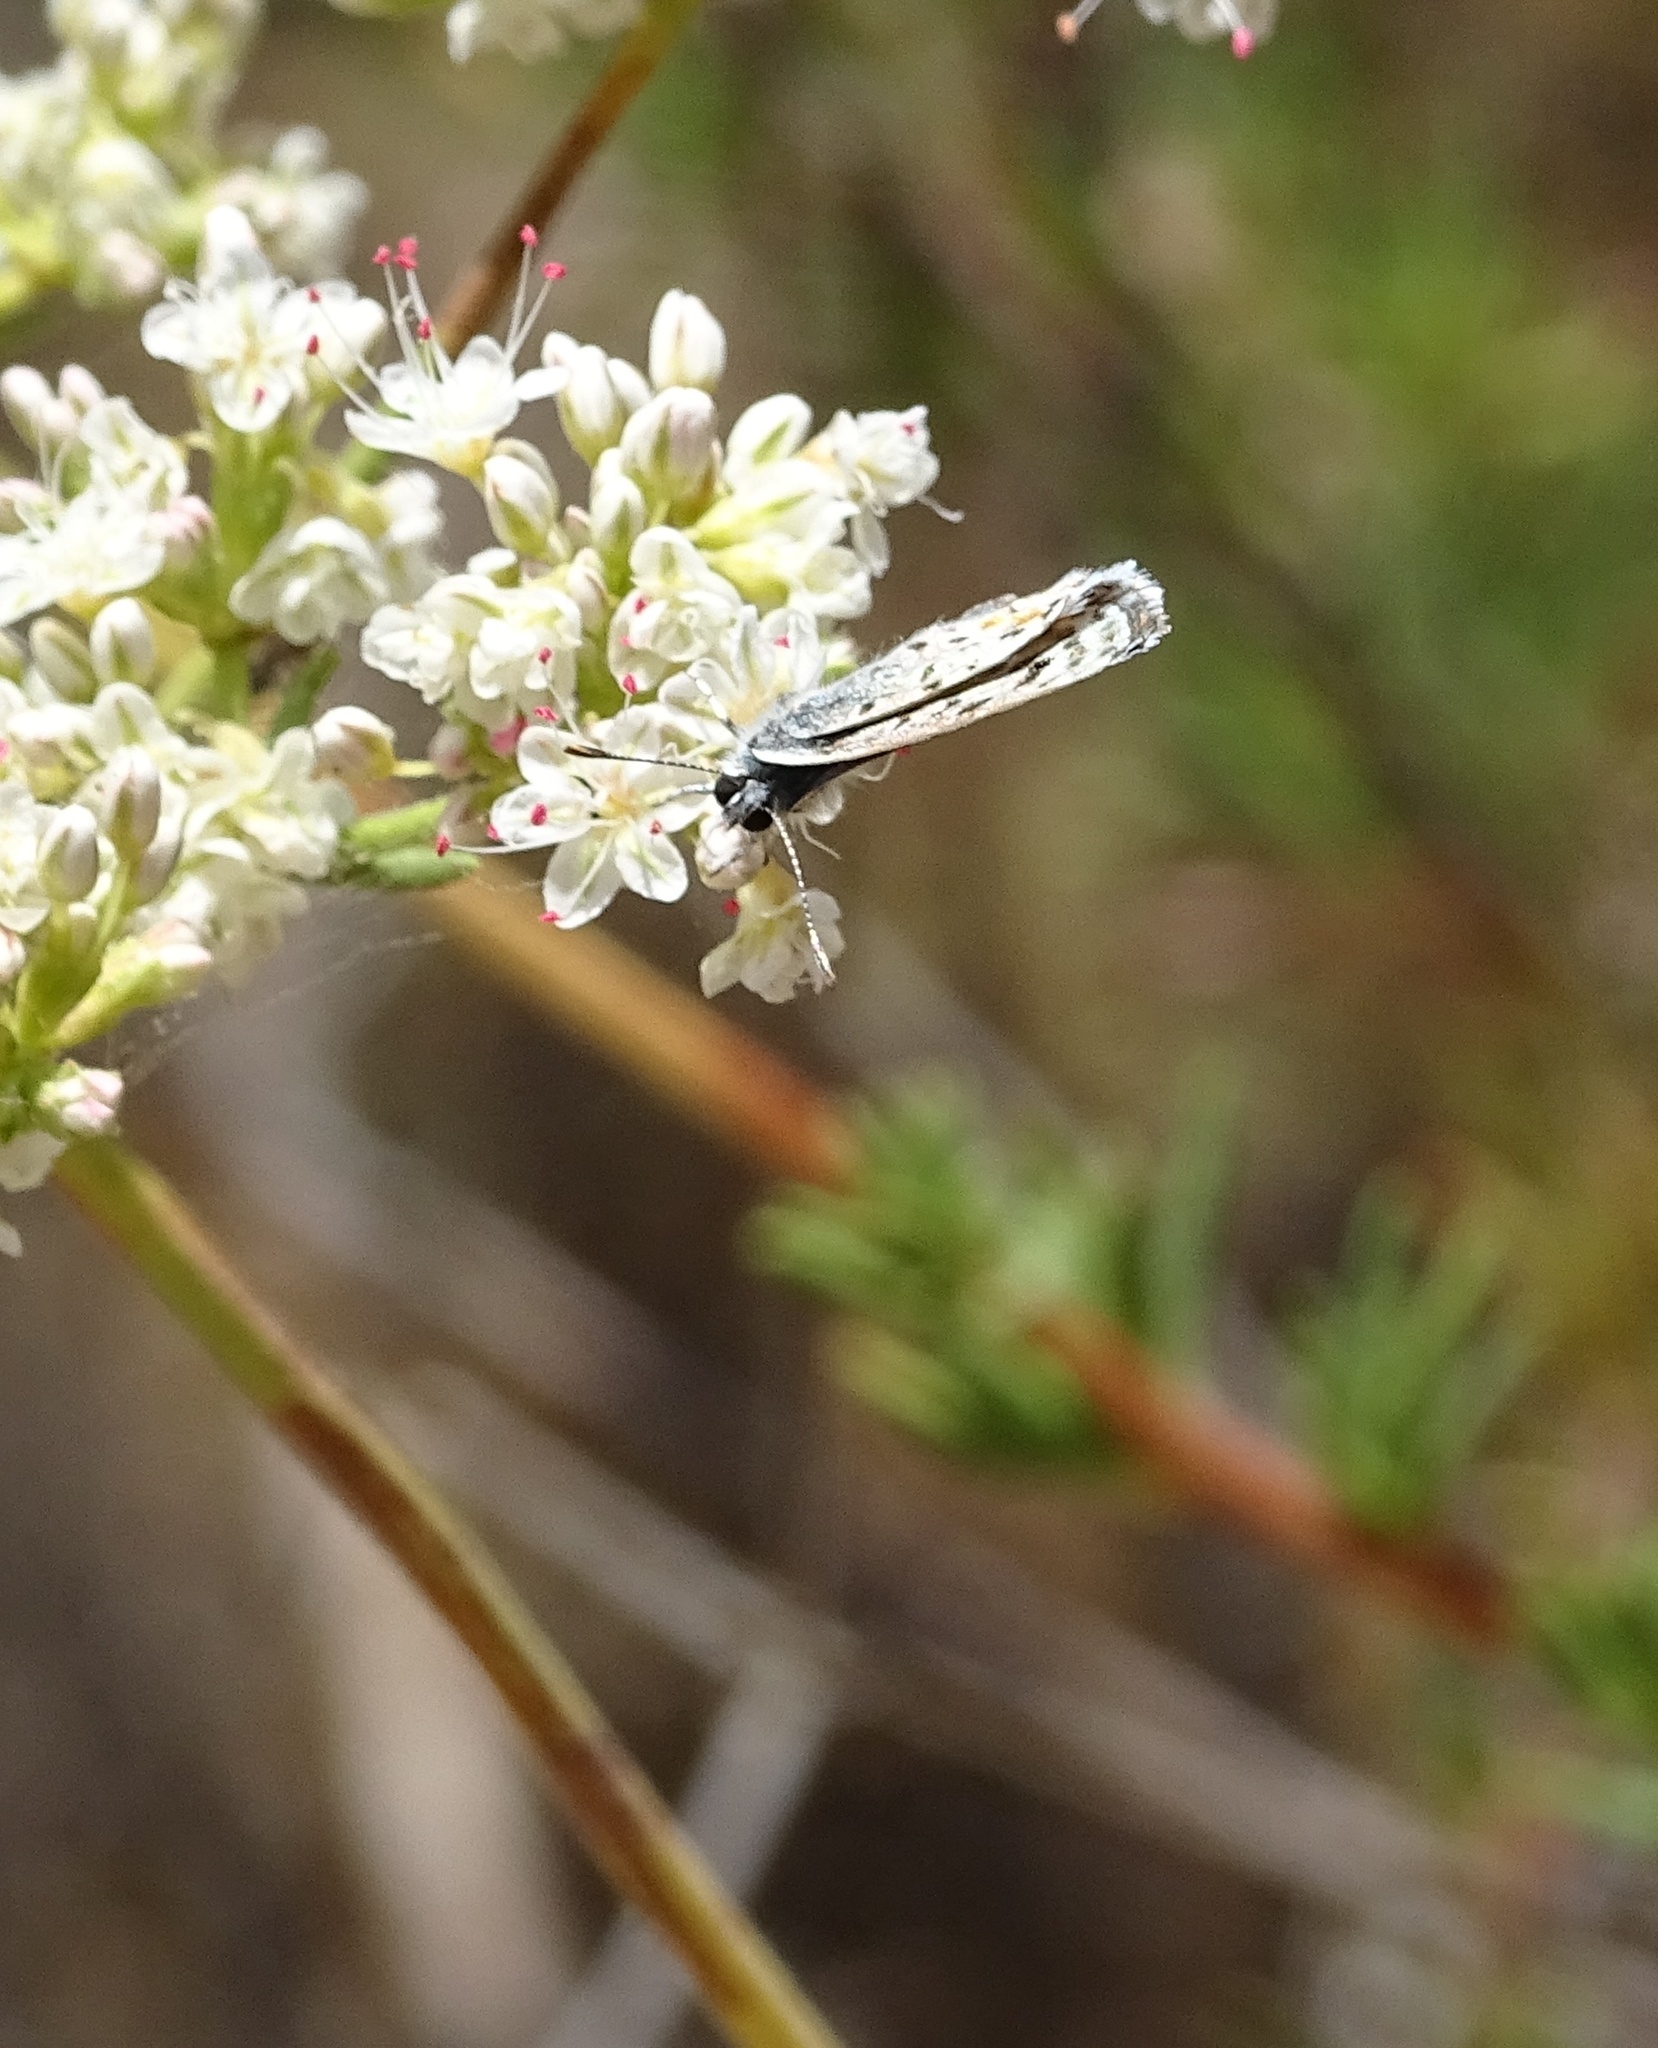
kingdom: Animalia
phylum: Arthropoda
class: Insecta
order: Lepidoptera
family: Lycaenidae
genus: Philotes
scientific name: Philotes bernardino
